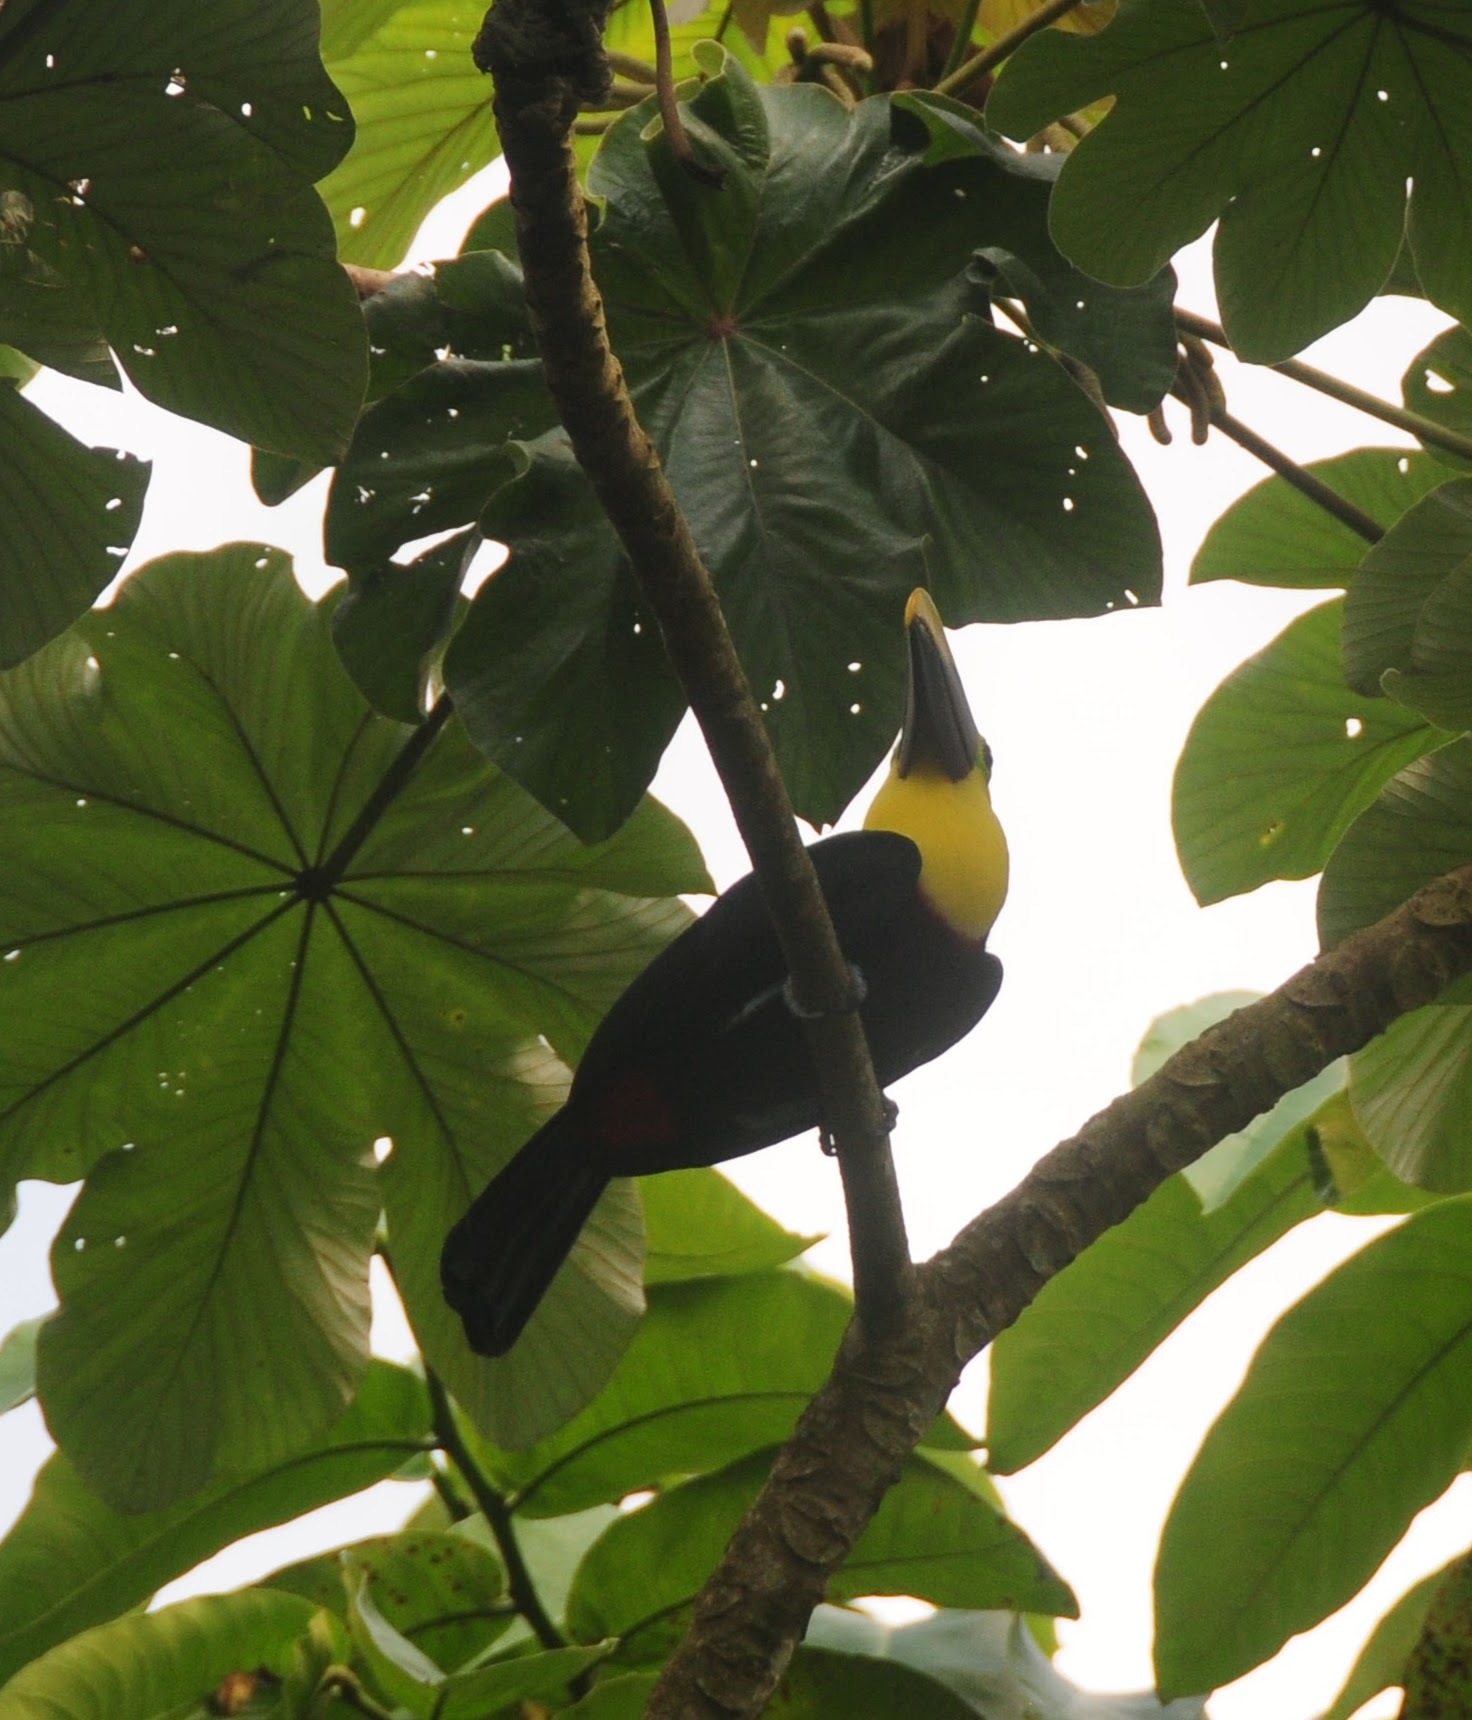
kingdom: Animalia
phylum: Chordata
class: Aves
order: Piciformes
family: Ramphastidae
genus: Ramphastos
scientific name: Ramphastos ambiguus
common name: Yellow-throated toucan
